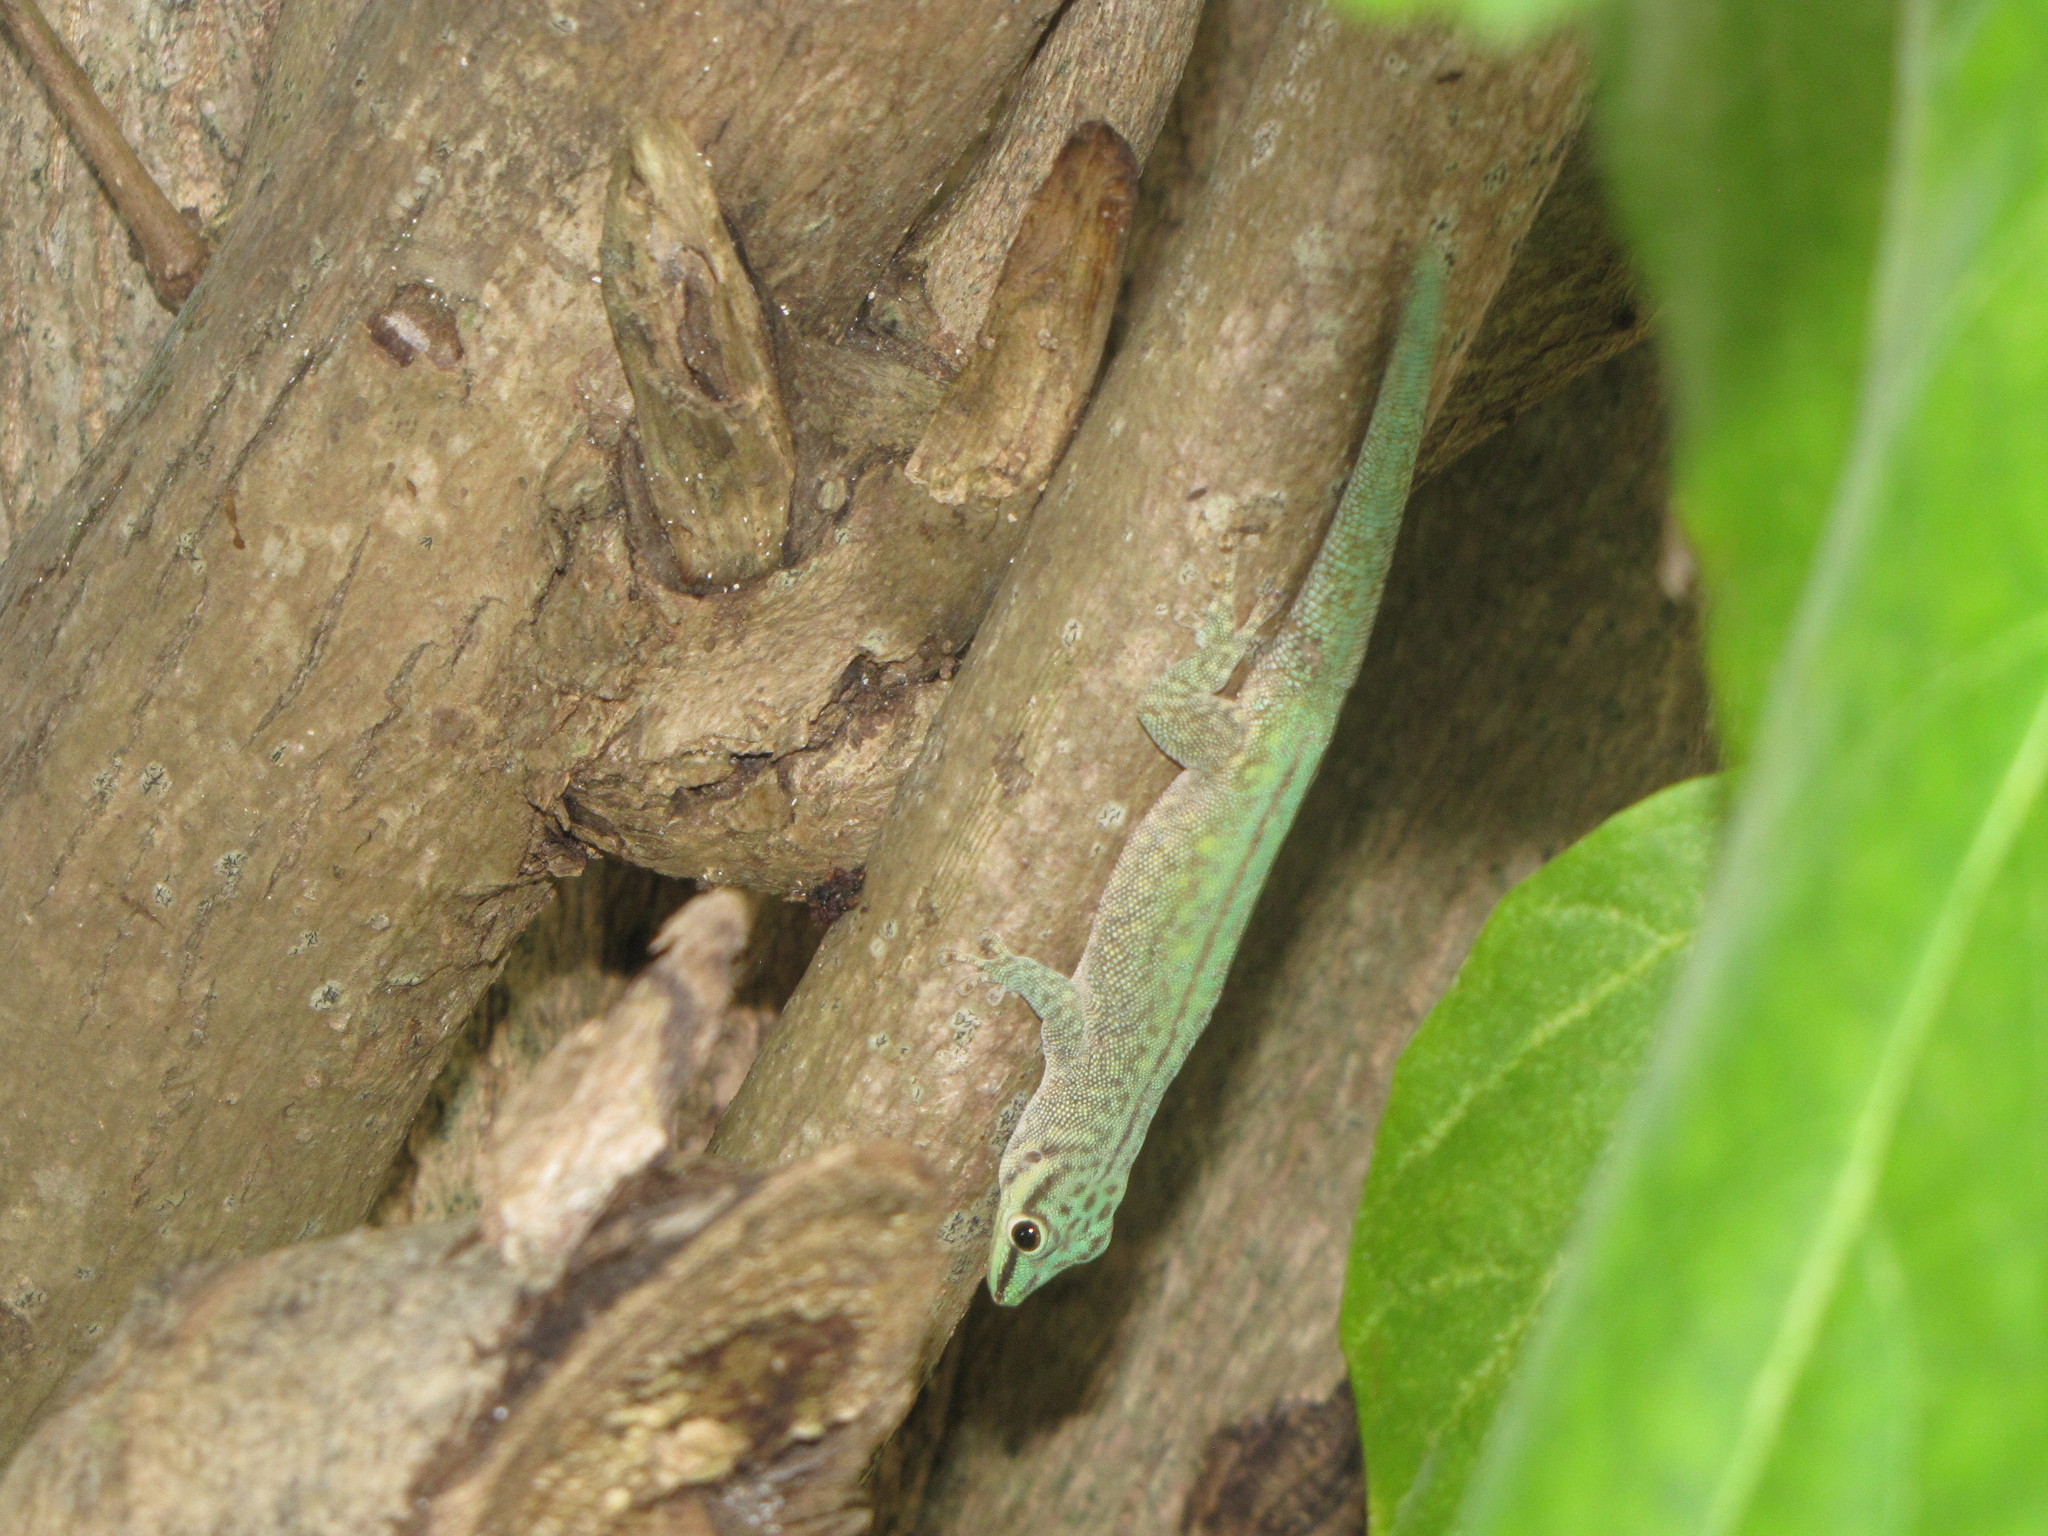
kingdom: Animalia
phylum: Chordata
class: Squamata
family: Gekkonidae
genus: Phelsuma
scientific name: Phelsuma abbotti
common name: Aldabra day gecko
